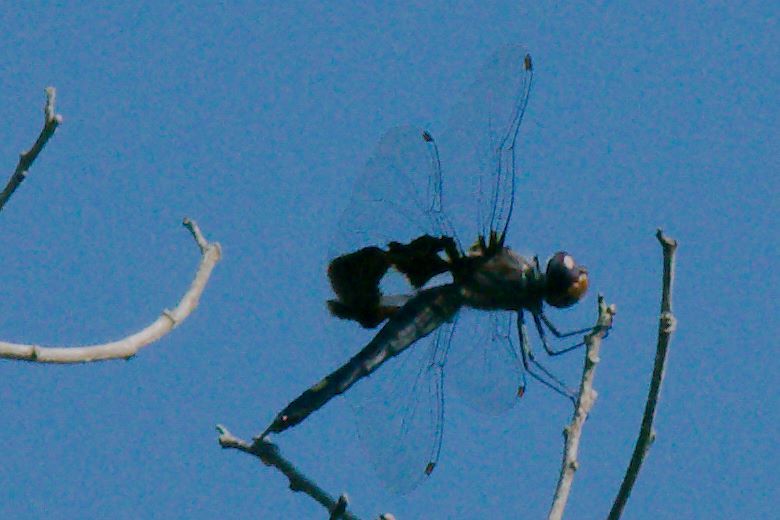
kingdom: Animalia
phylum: Arthropoda
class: Insecta
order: Odonata
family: Libellulidae
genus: Tramea
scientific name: Tramea lacerata
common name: Black saddlebags
